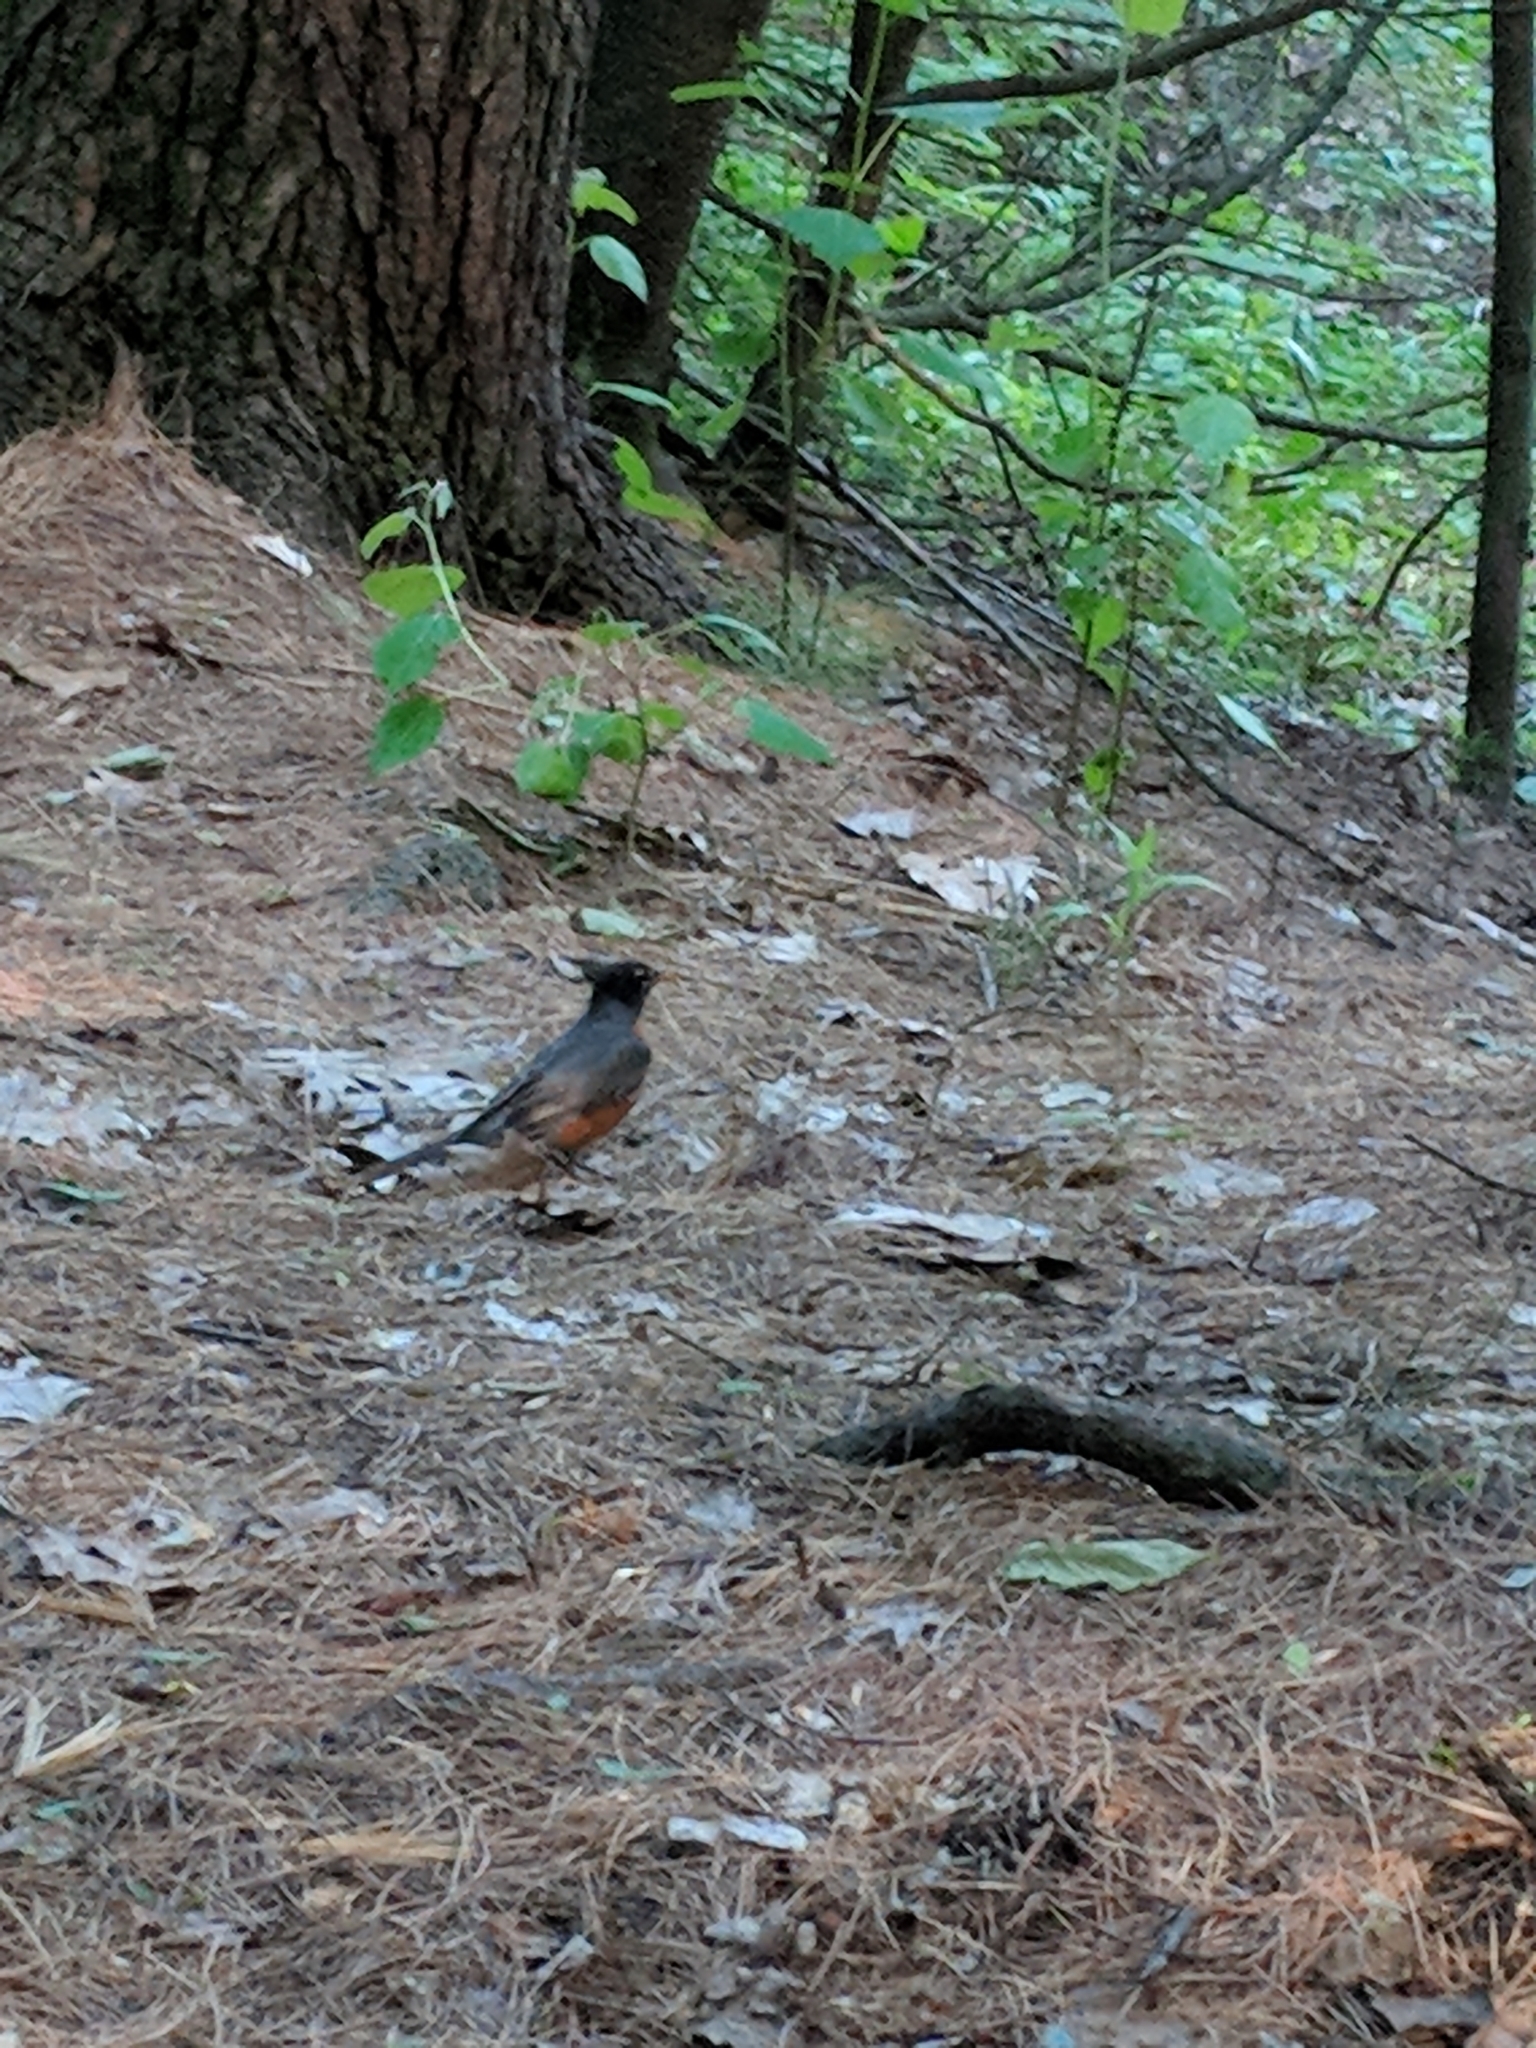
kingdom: Animalia
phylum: Chordata
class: Aves
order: Passeriformes
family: Turdidae
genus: Turdus
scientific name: Turdus migratorius
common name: American robin
